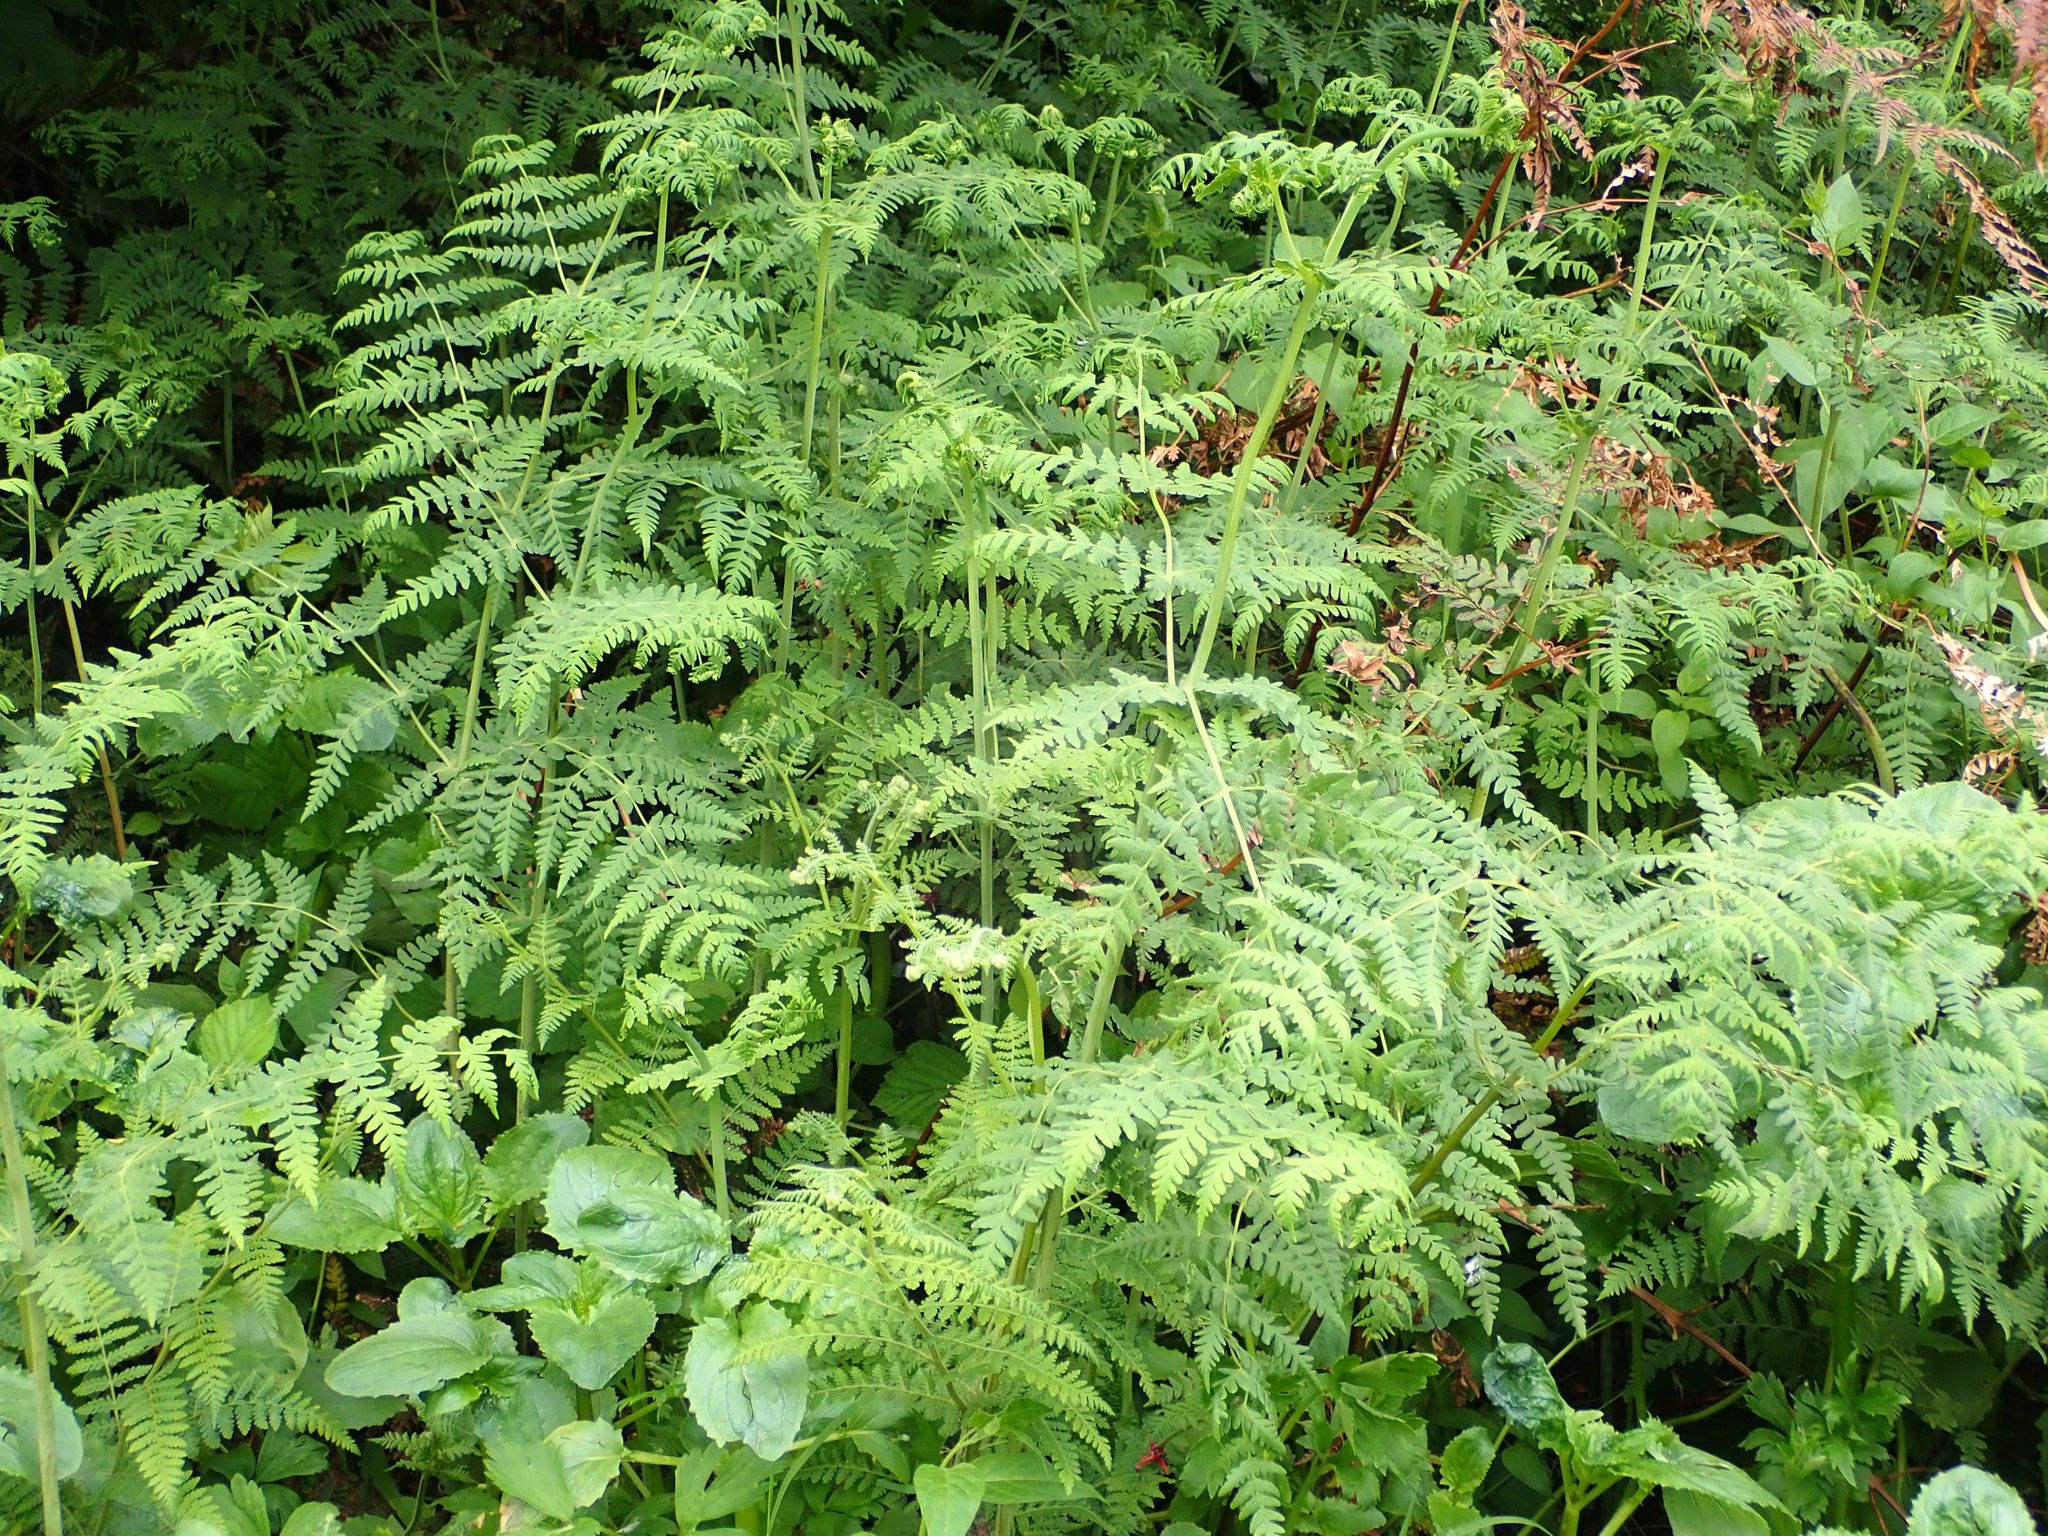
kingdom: Plantae
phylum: Tracheophyta
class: Polypodiopsida
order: Polypodiales
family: Dennstaedtiaceae
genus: Histiopteris
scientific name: Histiopteris incisa
